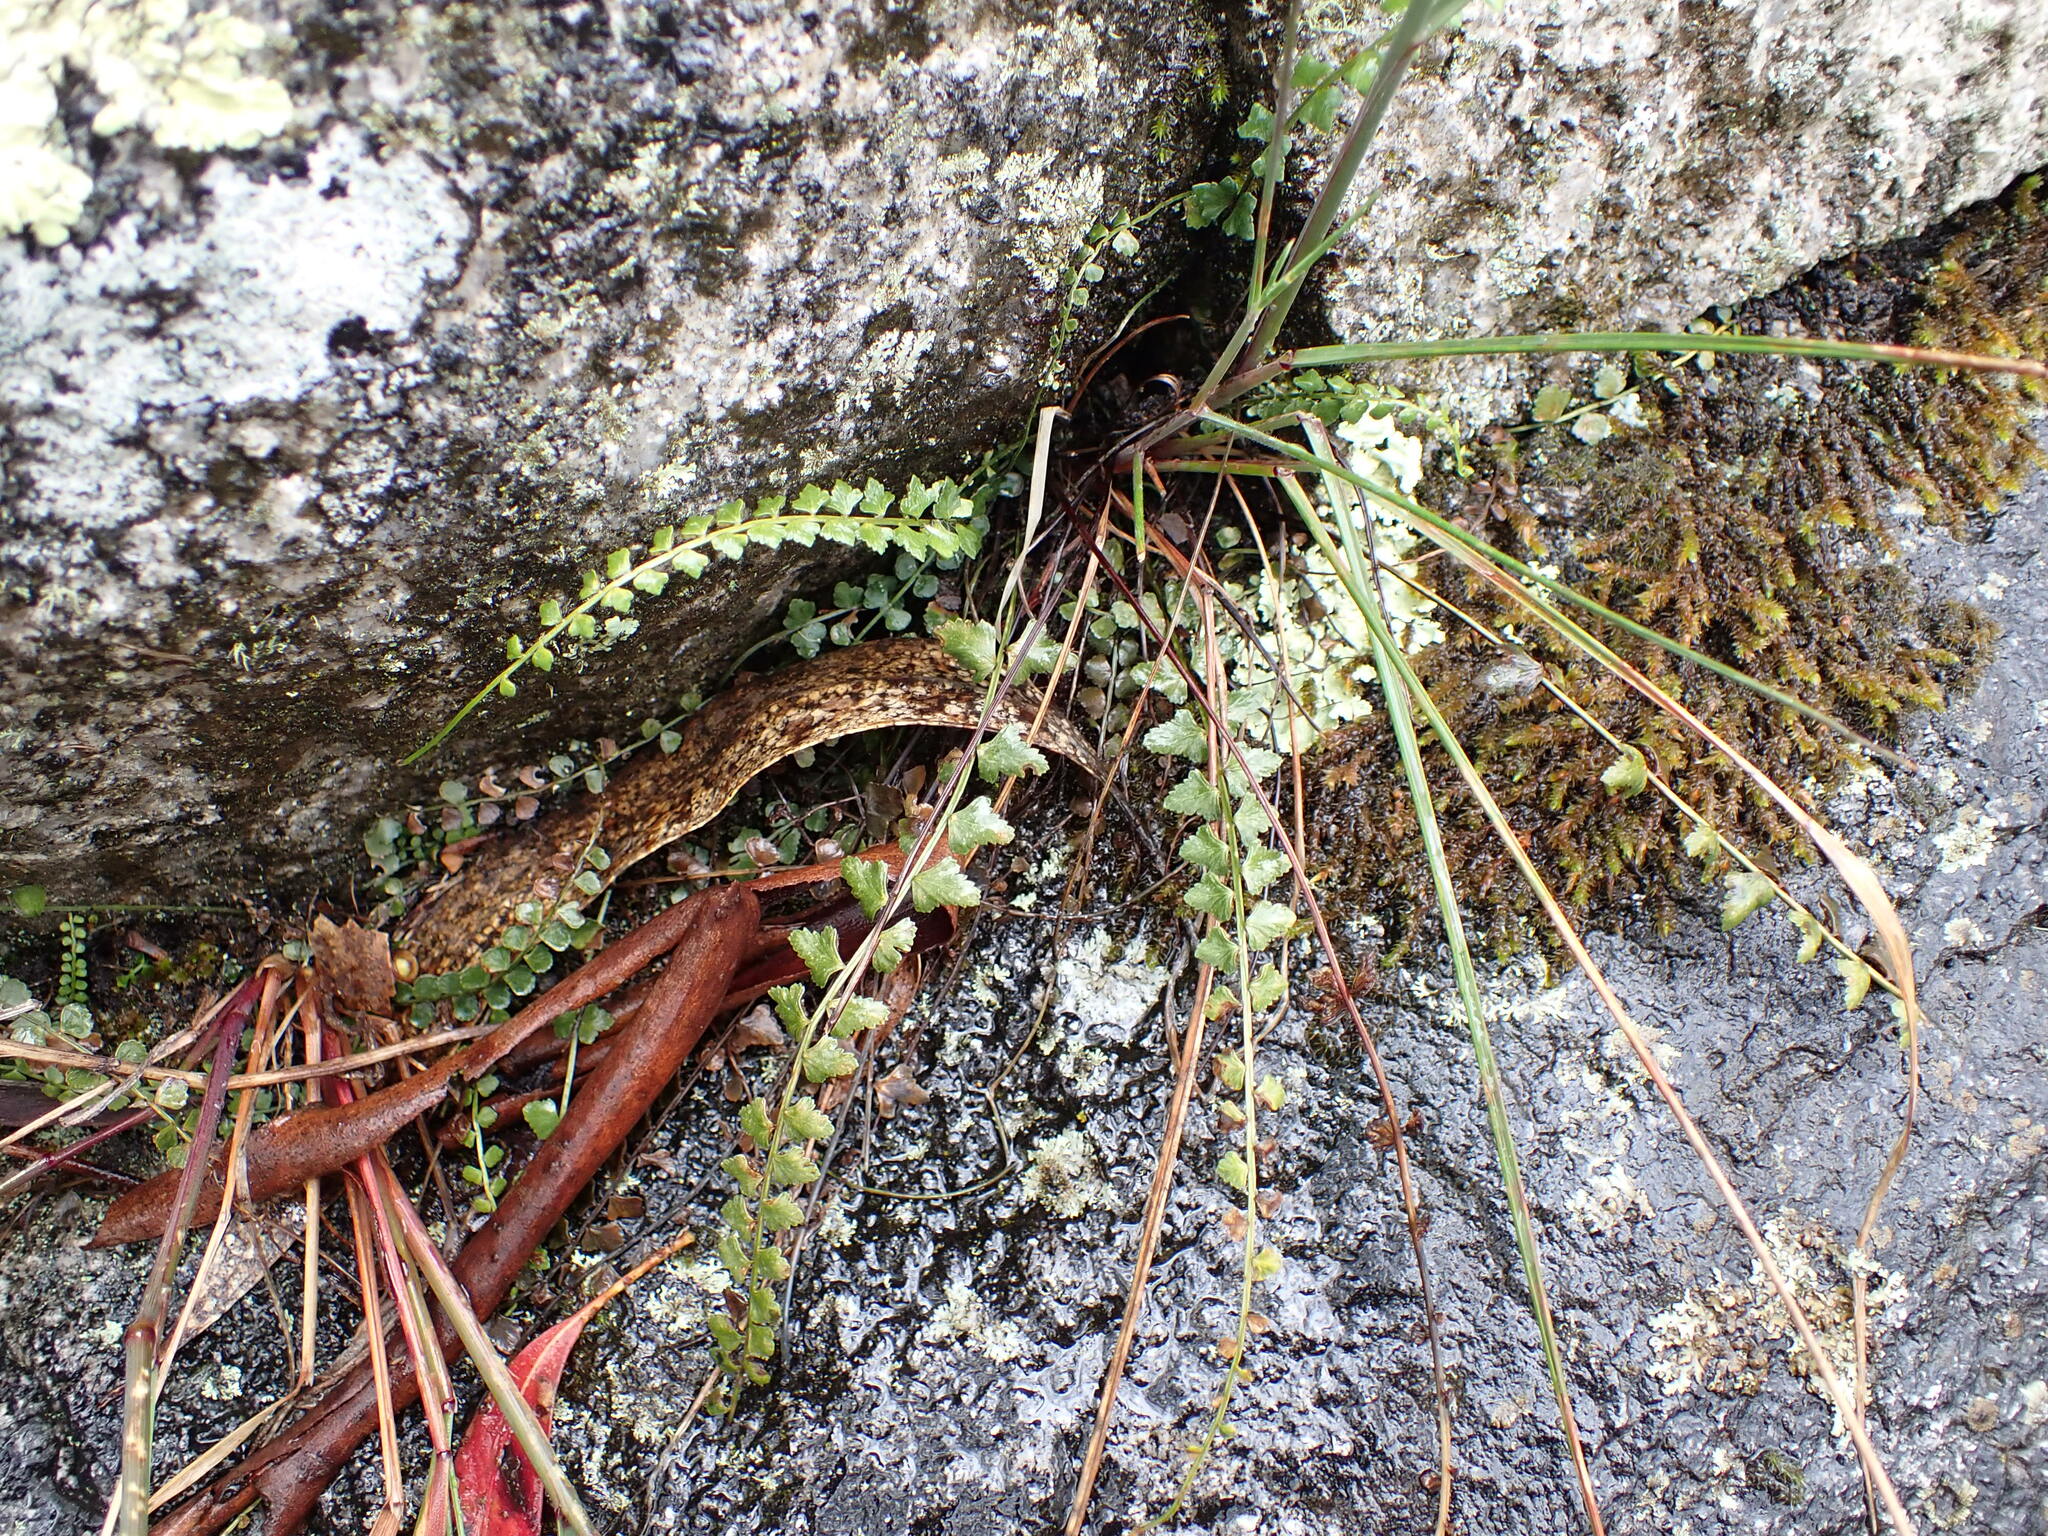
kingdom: Plantae
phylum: Tracheophyta
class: Polypodiopsida
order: Polypodiales
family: Aspleniaceae
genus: Asplenium
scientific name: Asplenium flabellifolium
